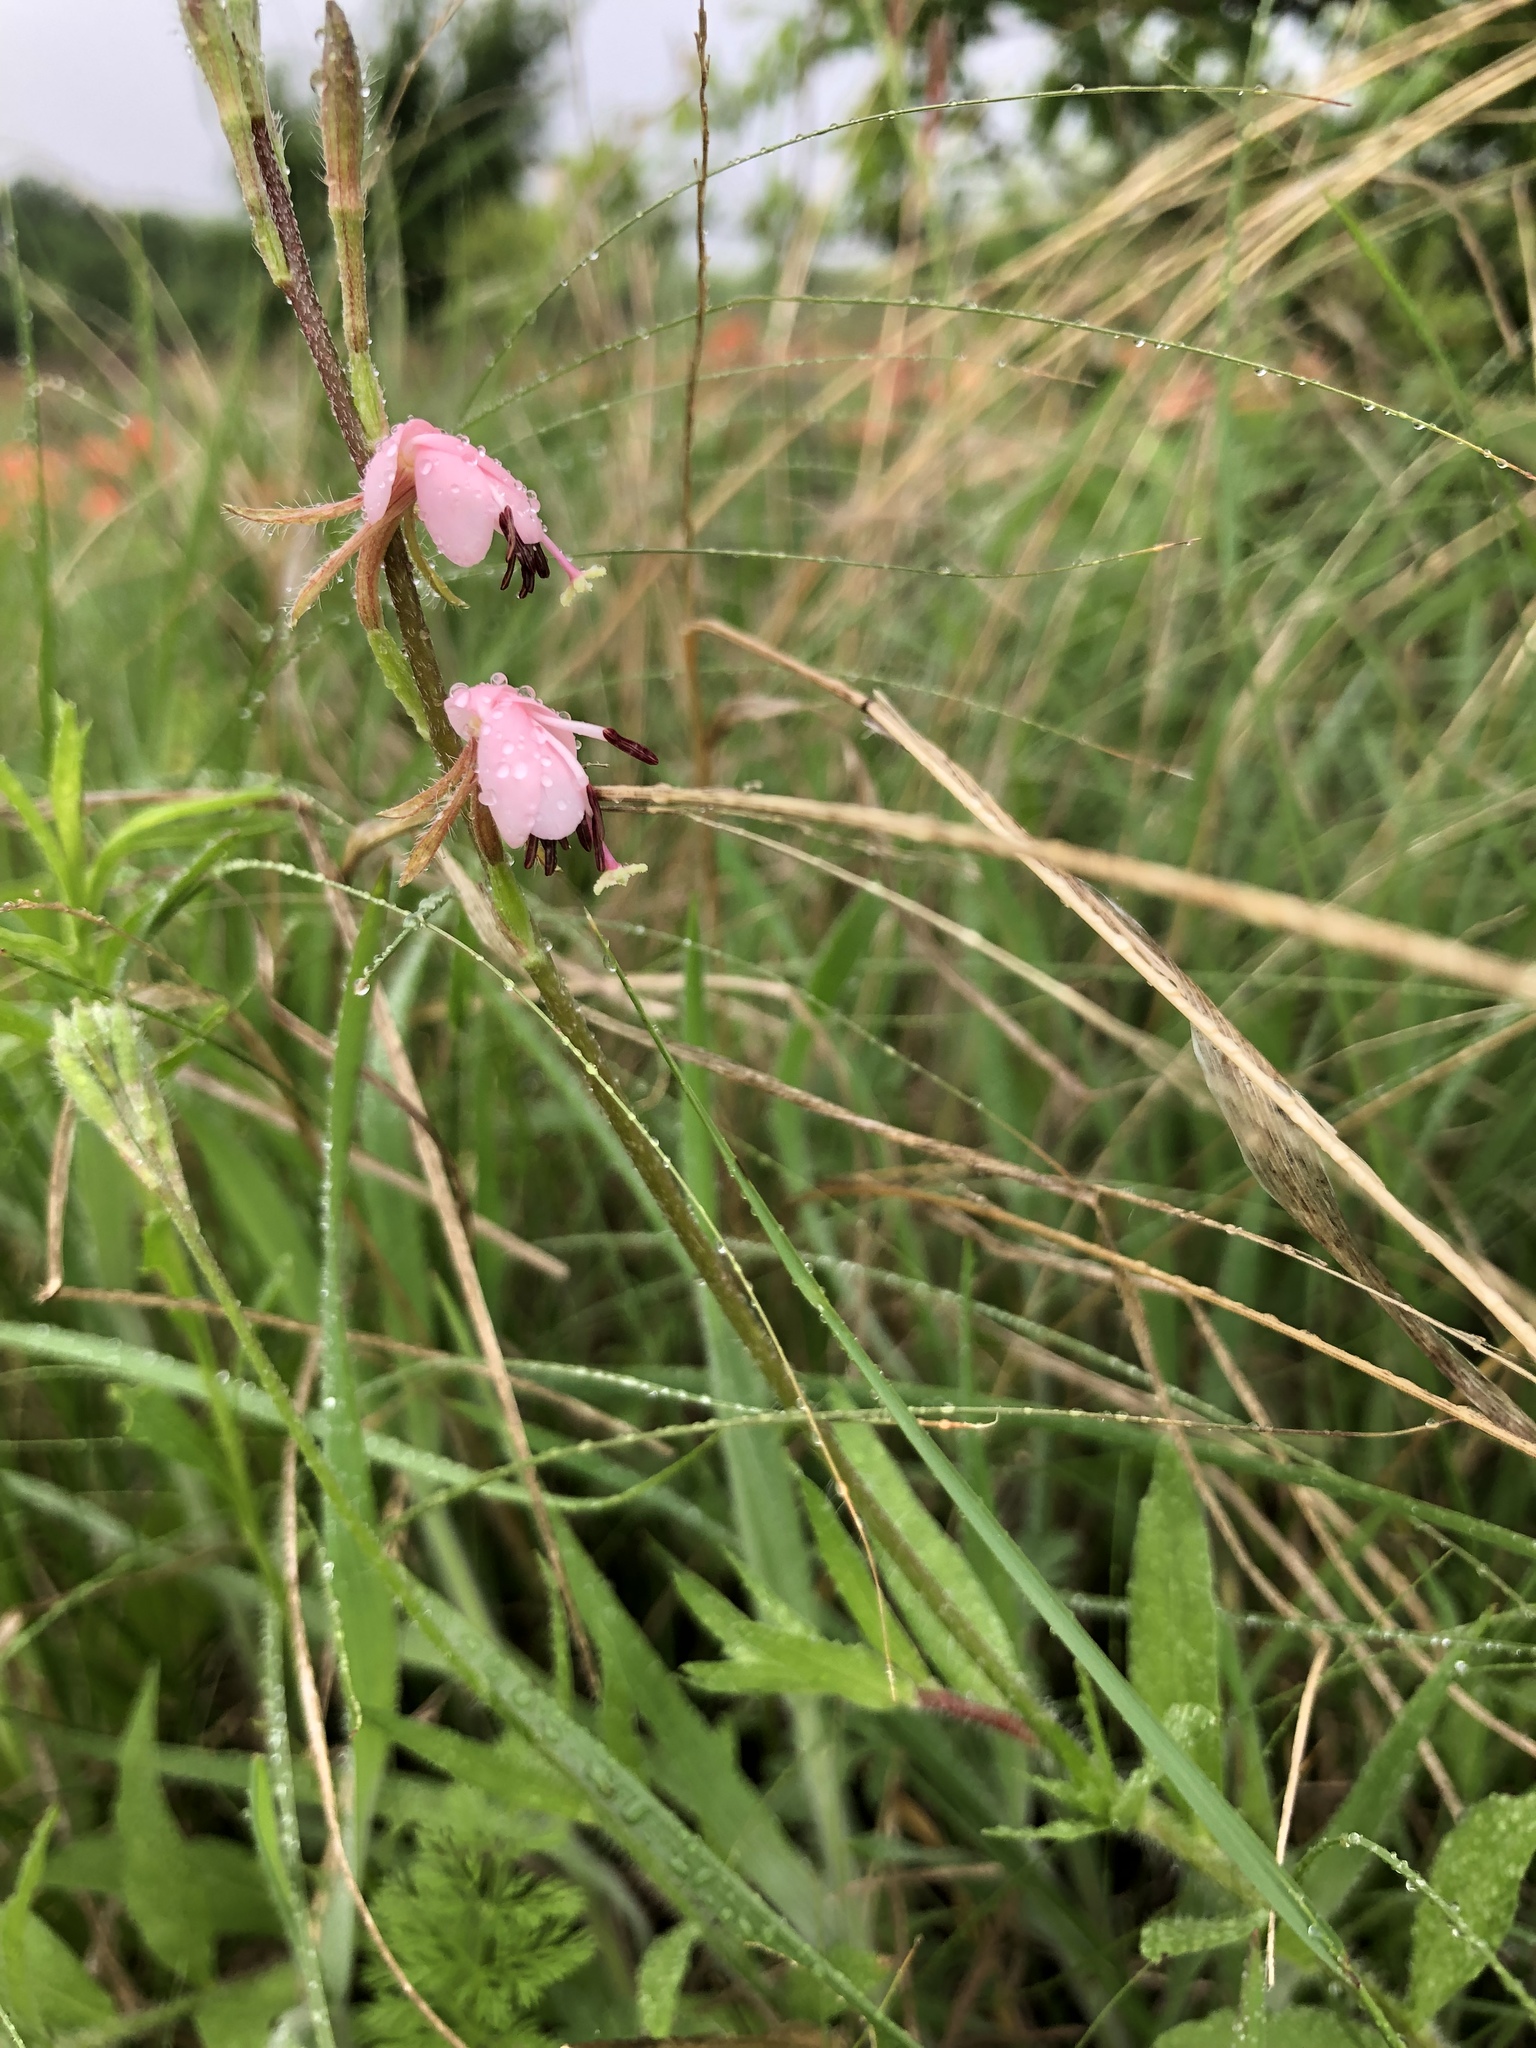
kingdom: Plantae
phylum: Tracheophyta
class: Magnoliopsida
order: Myrtales
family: Onagraceae
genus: Oenothera
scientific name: Oenothera suffulta
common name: Kisses
